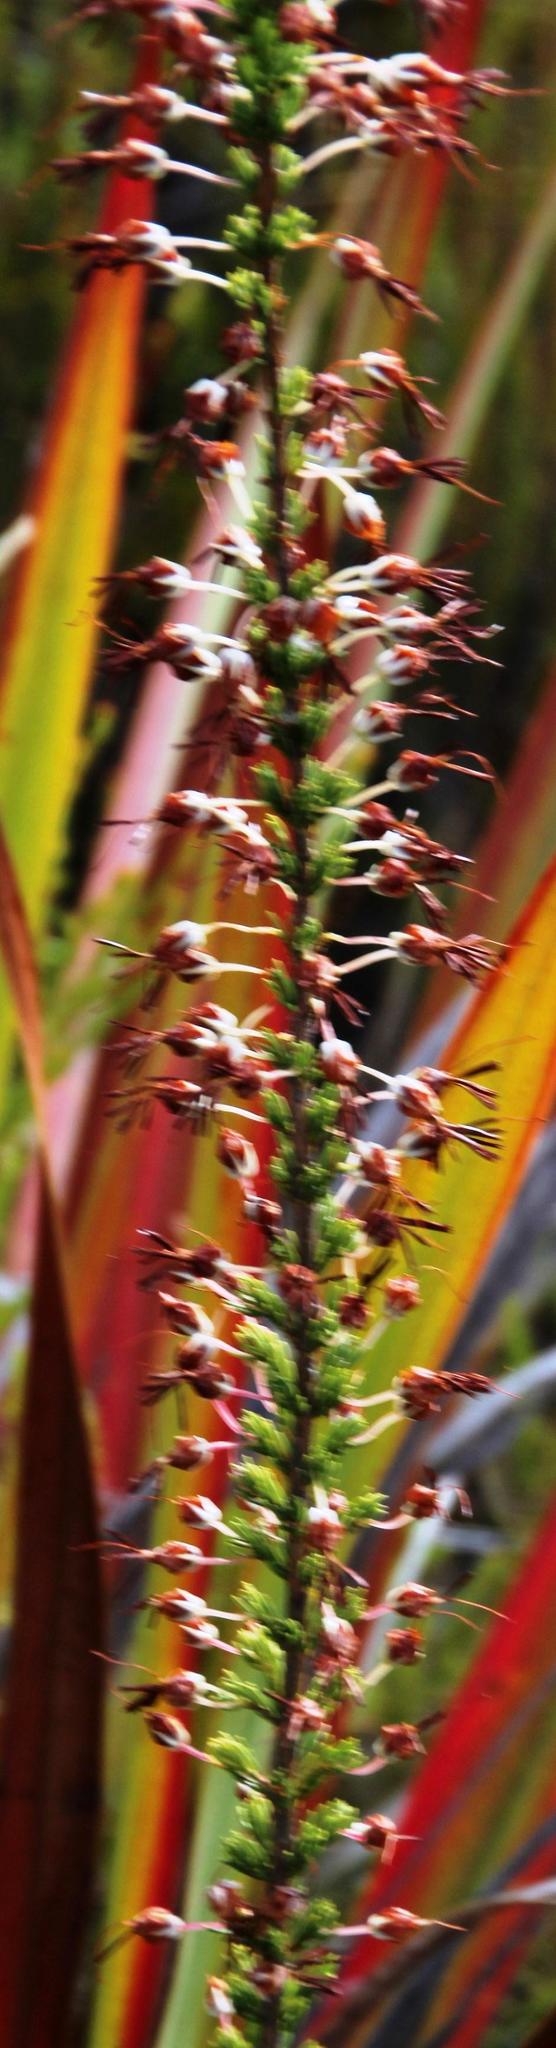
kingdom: Plantae
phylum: Tracheophyta
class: Magnoliopsida
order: Ericales
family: Ericaceae
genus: Erica
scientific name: Erica plukenetii
